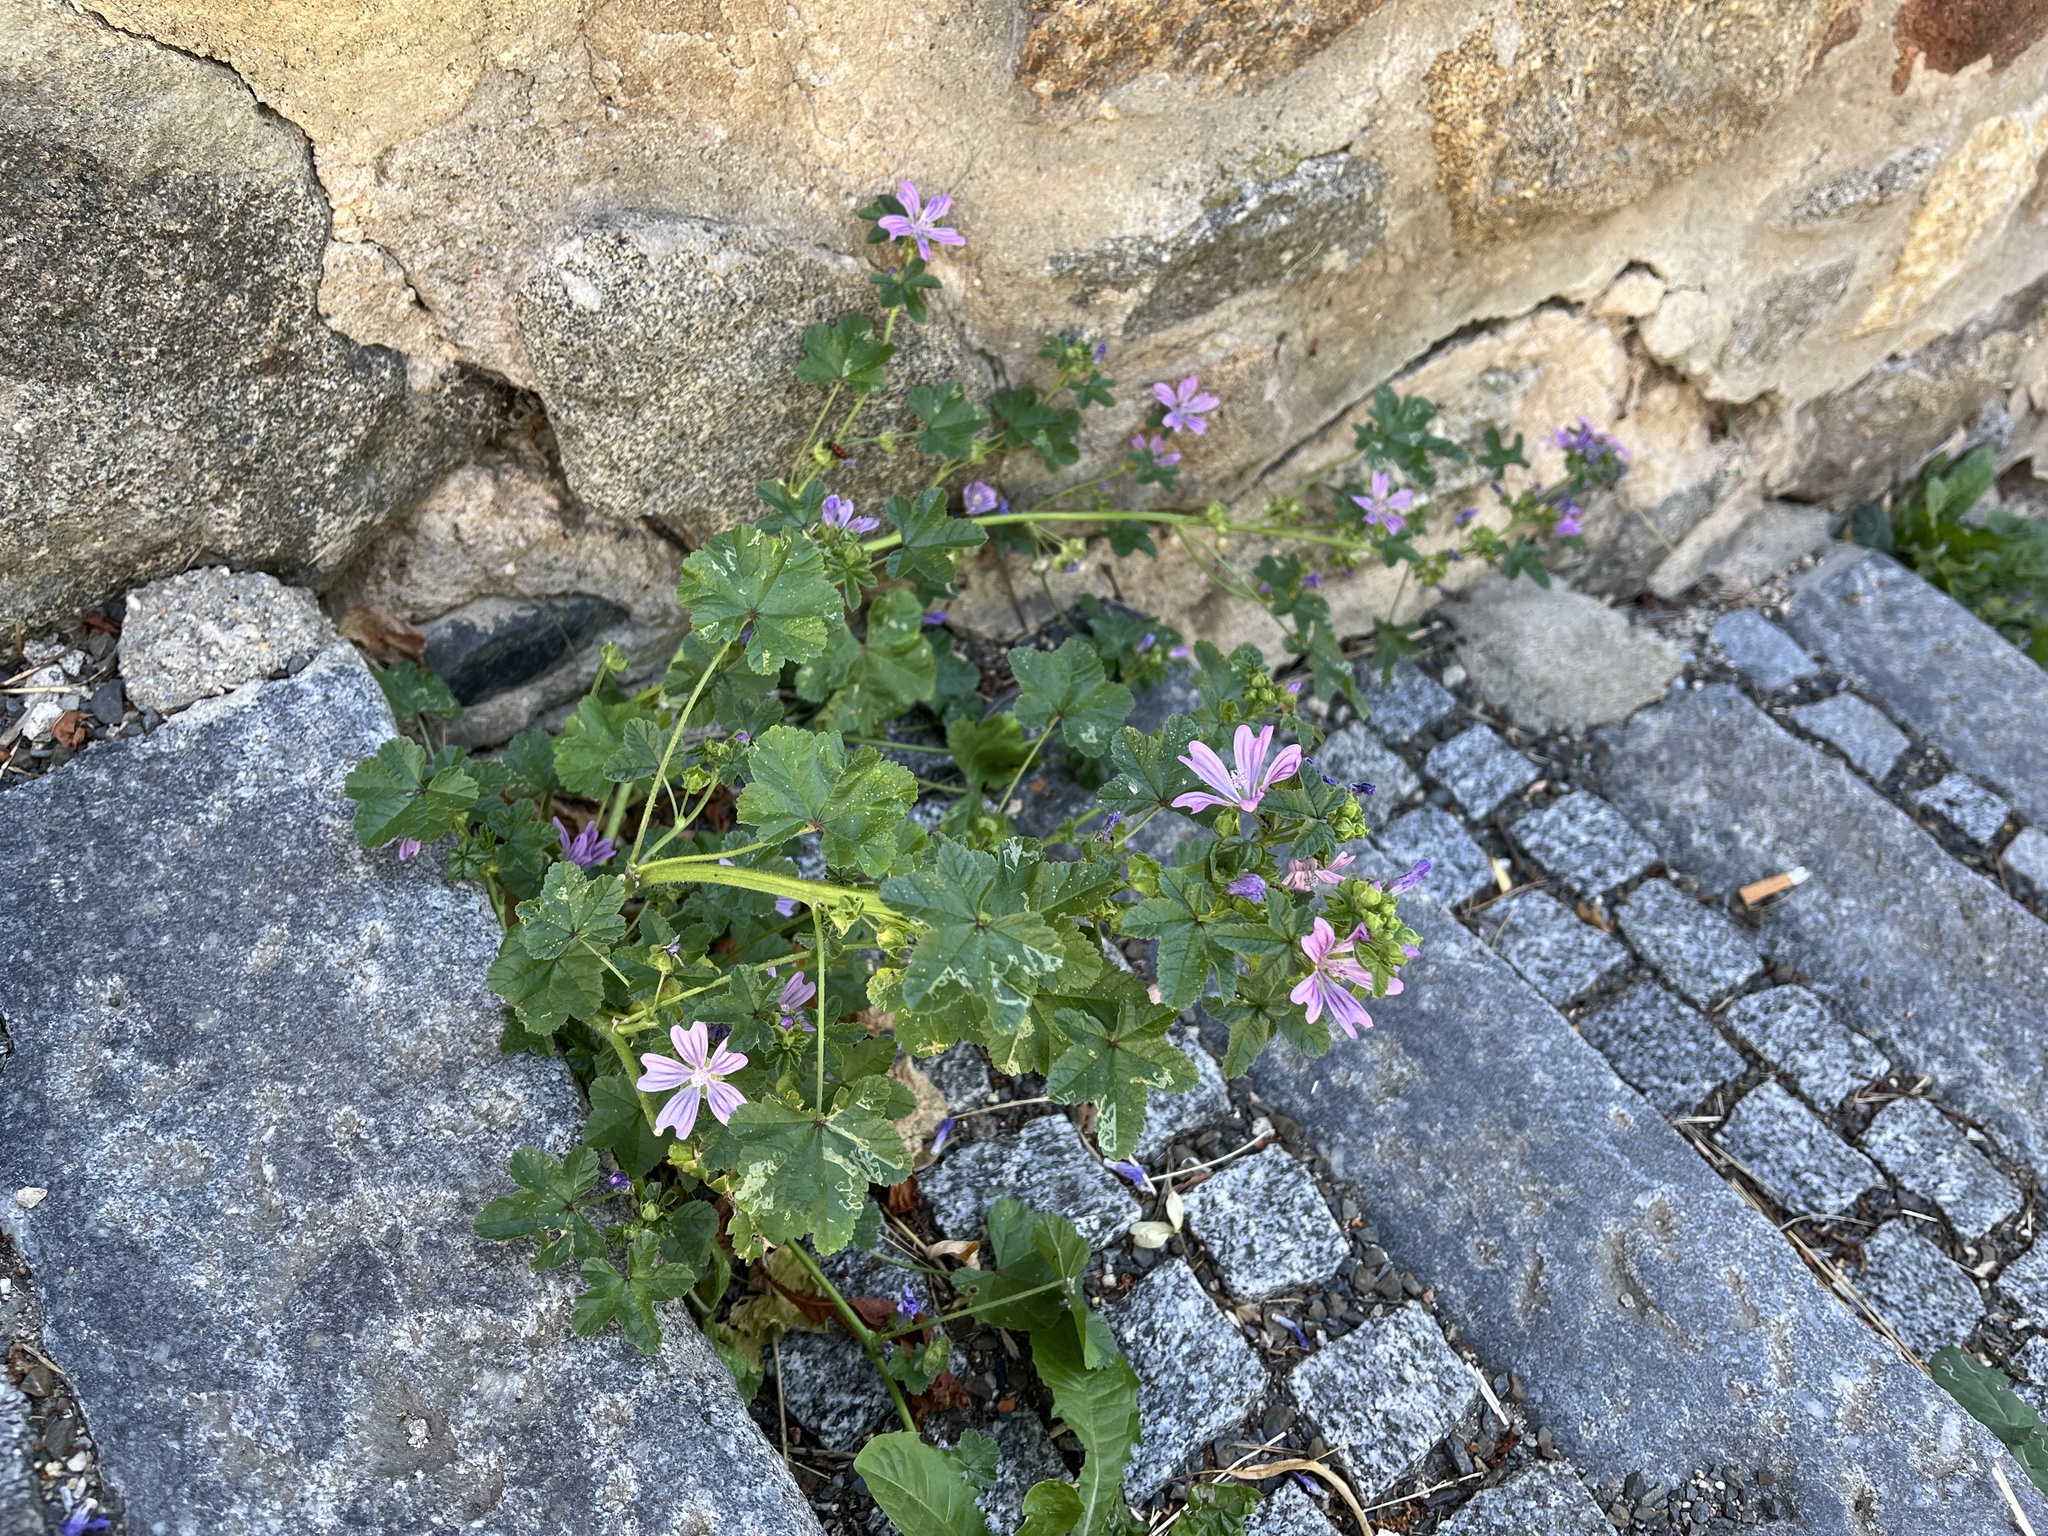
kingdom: Plantae
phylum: Tracheophyta
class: Magnoliopsida
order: Malvales
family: Malvaceae
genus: Malva
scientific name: Malva sylvestris
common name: Common mallow
